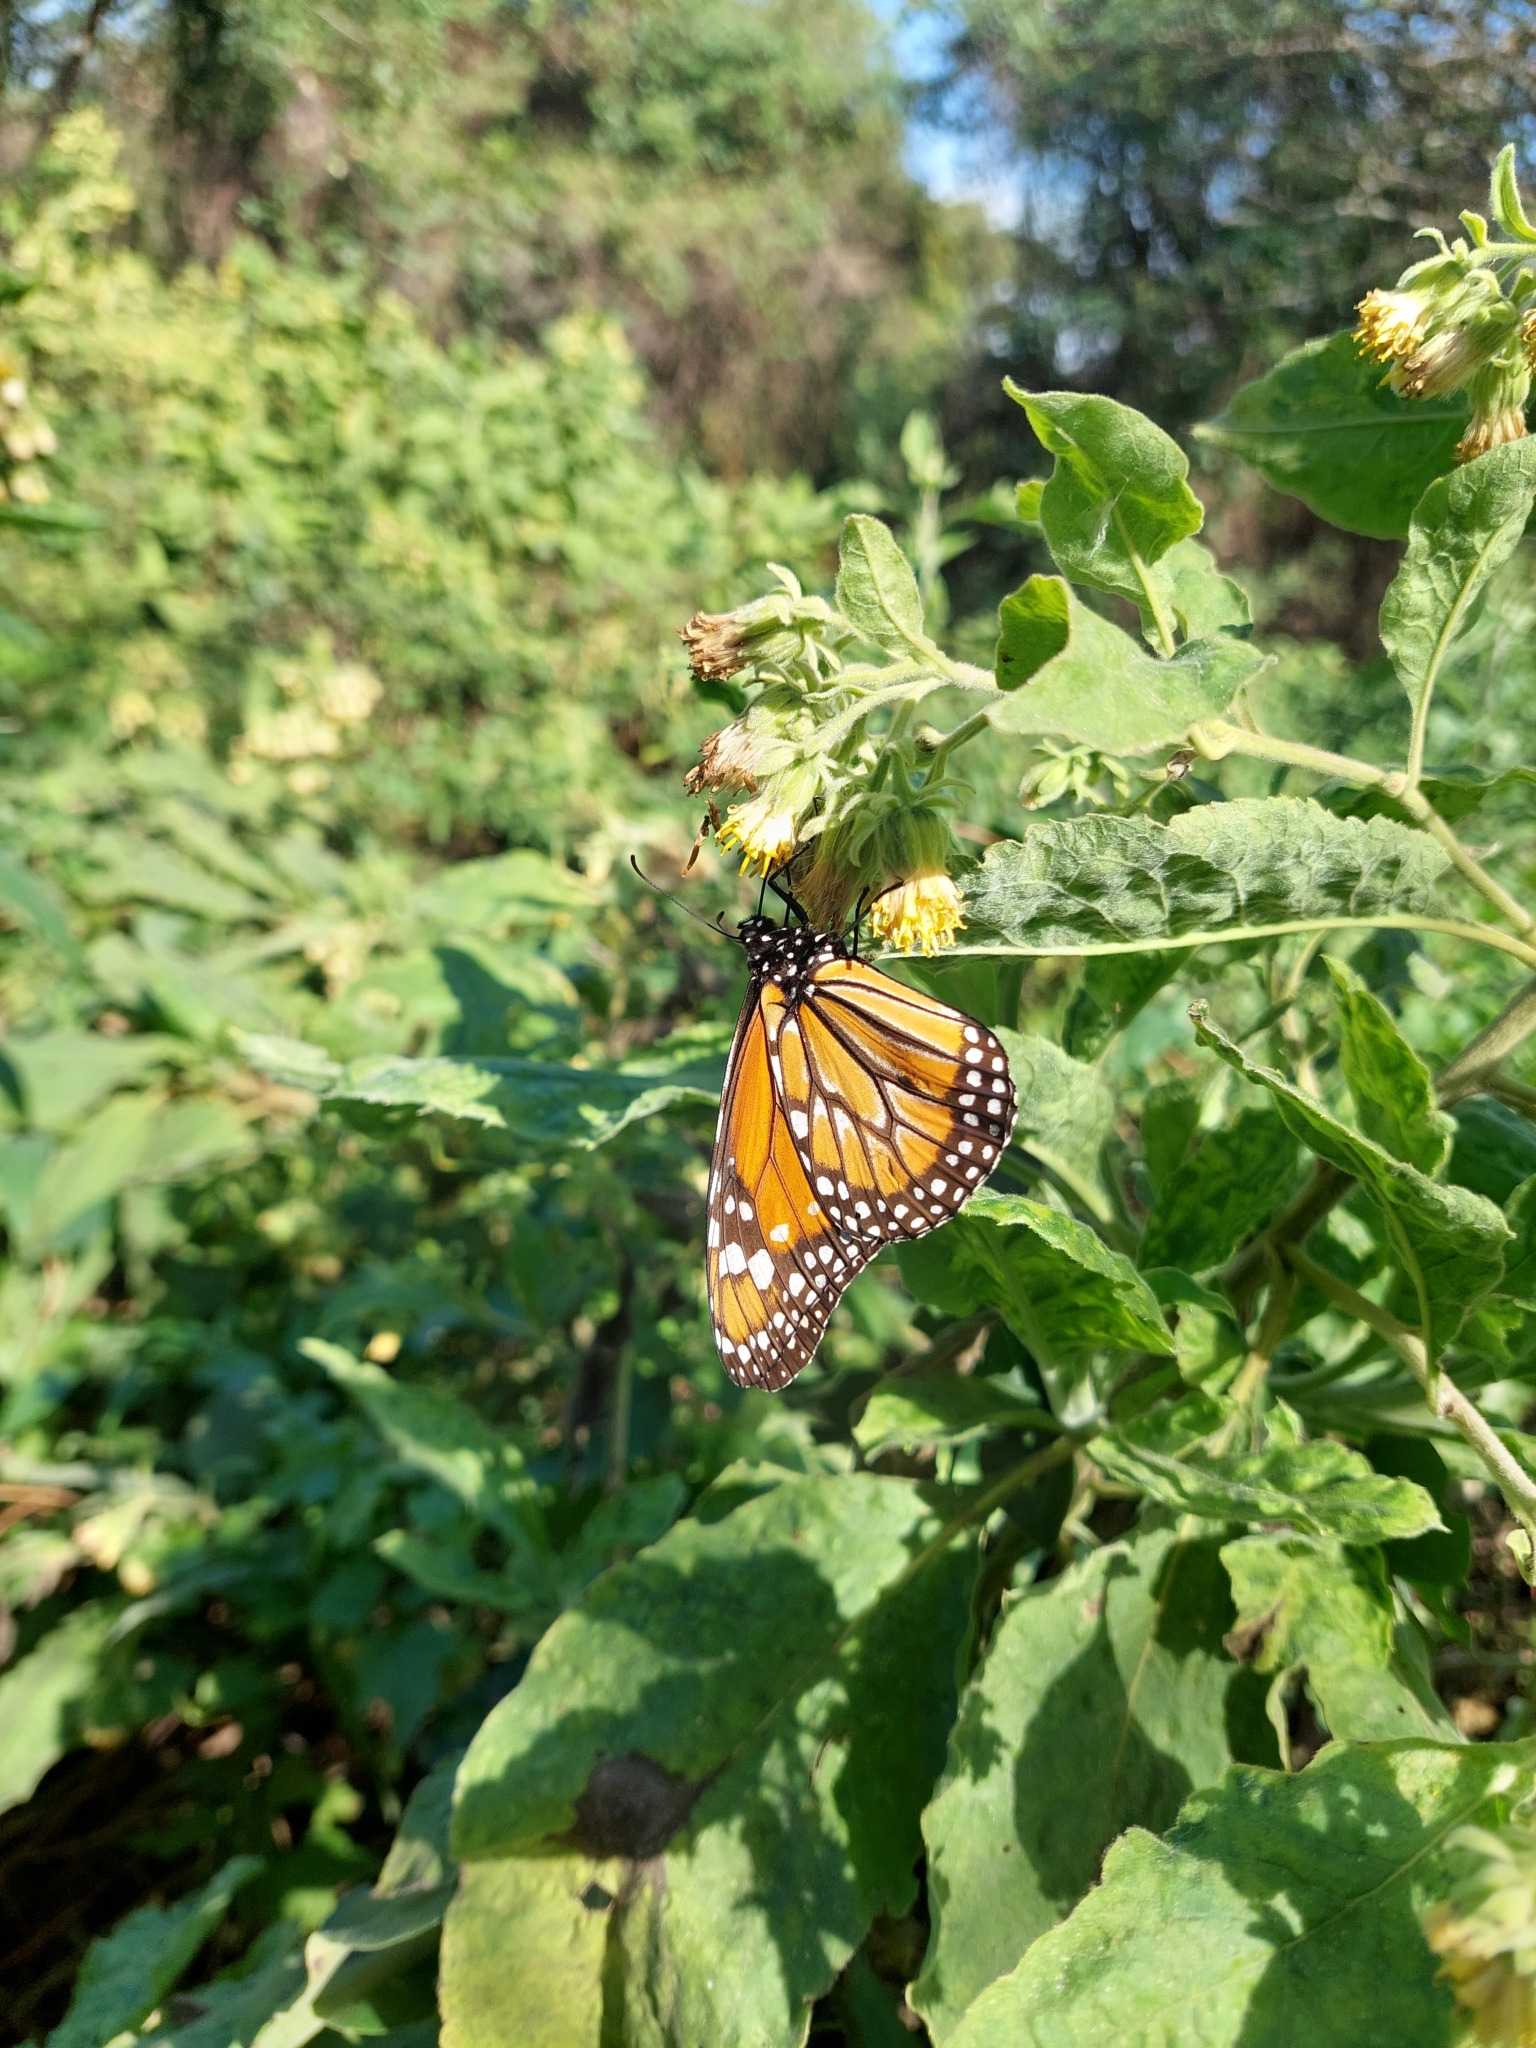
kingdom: Animalia
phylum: Arthropoda
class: Insecta
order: Lepidoptera
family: Nymphalidae
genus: Danaus
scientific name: Danaus erippus
